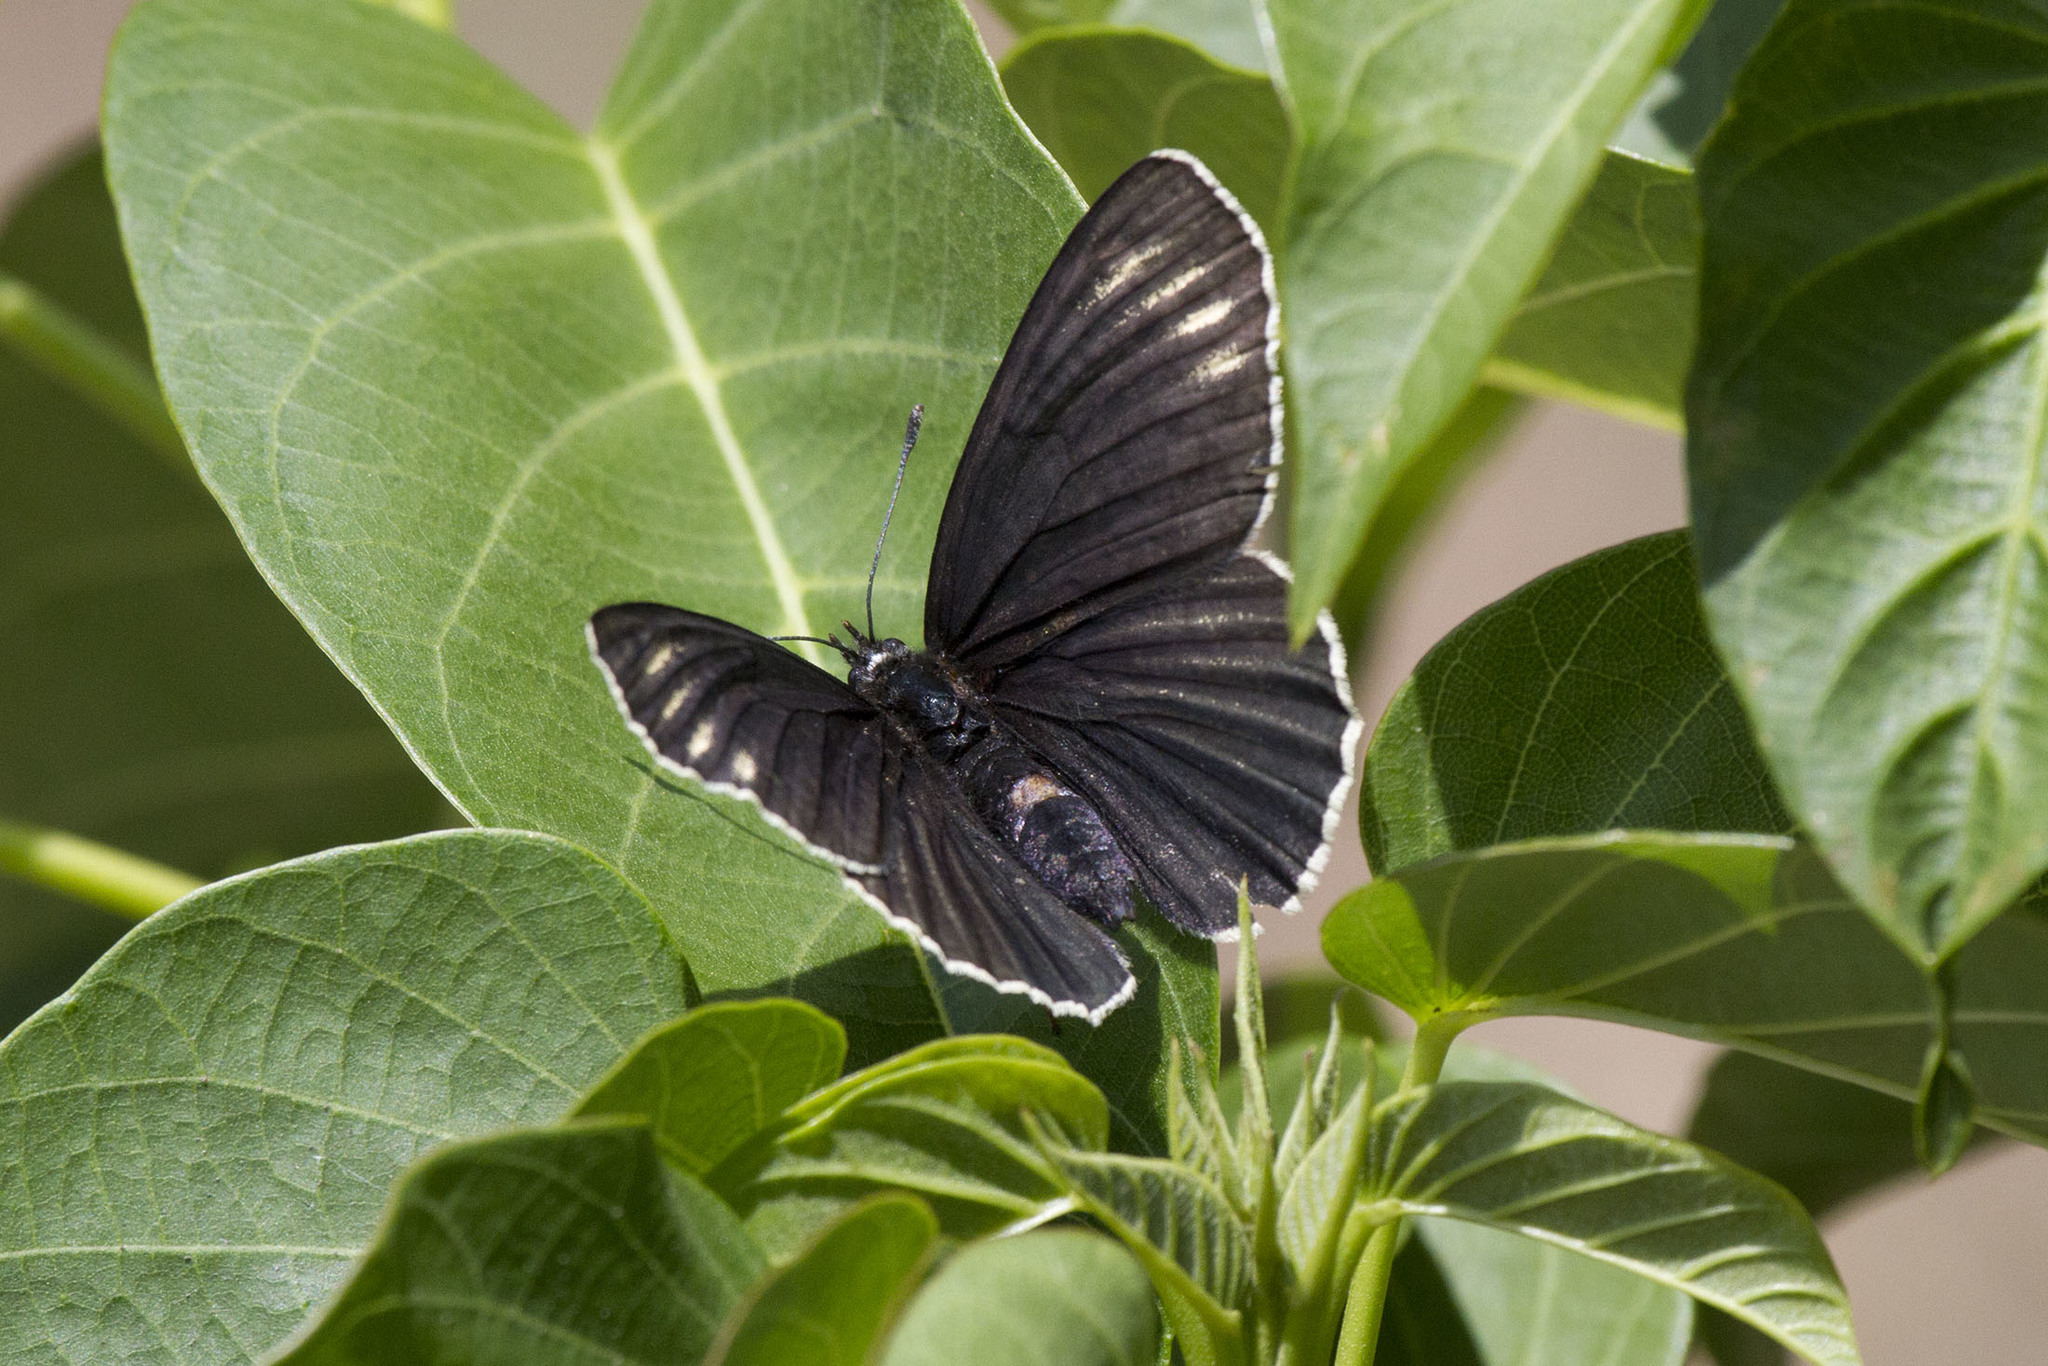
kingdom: Animalia
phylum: Arthropoda
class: Insecta
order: Lepidoptera
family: Nymphalidae
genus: Chlosyne
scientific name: Chlosyne ehrenbergii
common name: White-rayed patch
